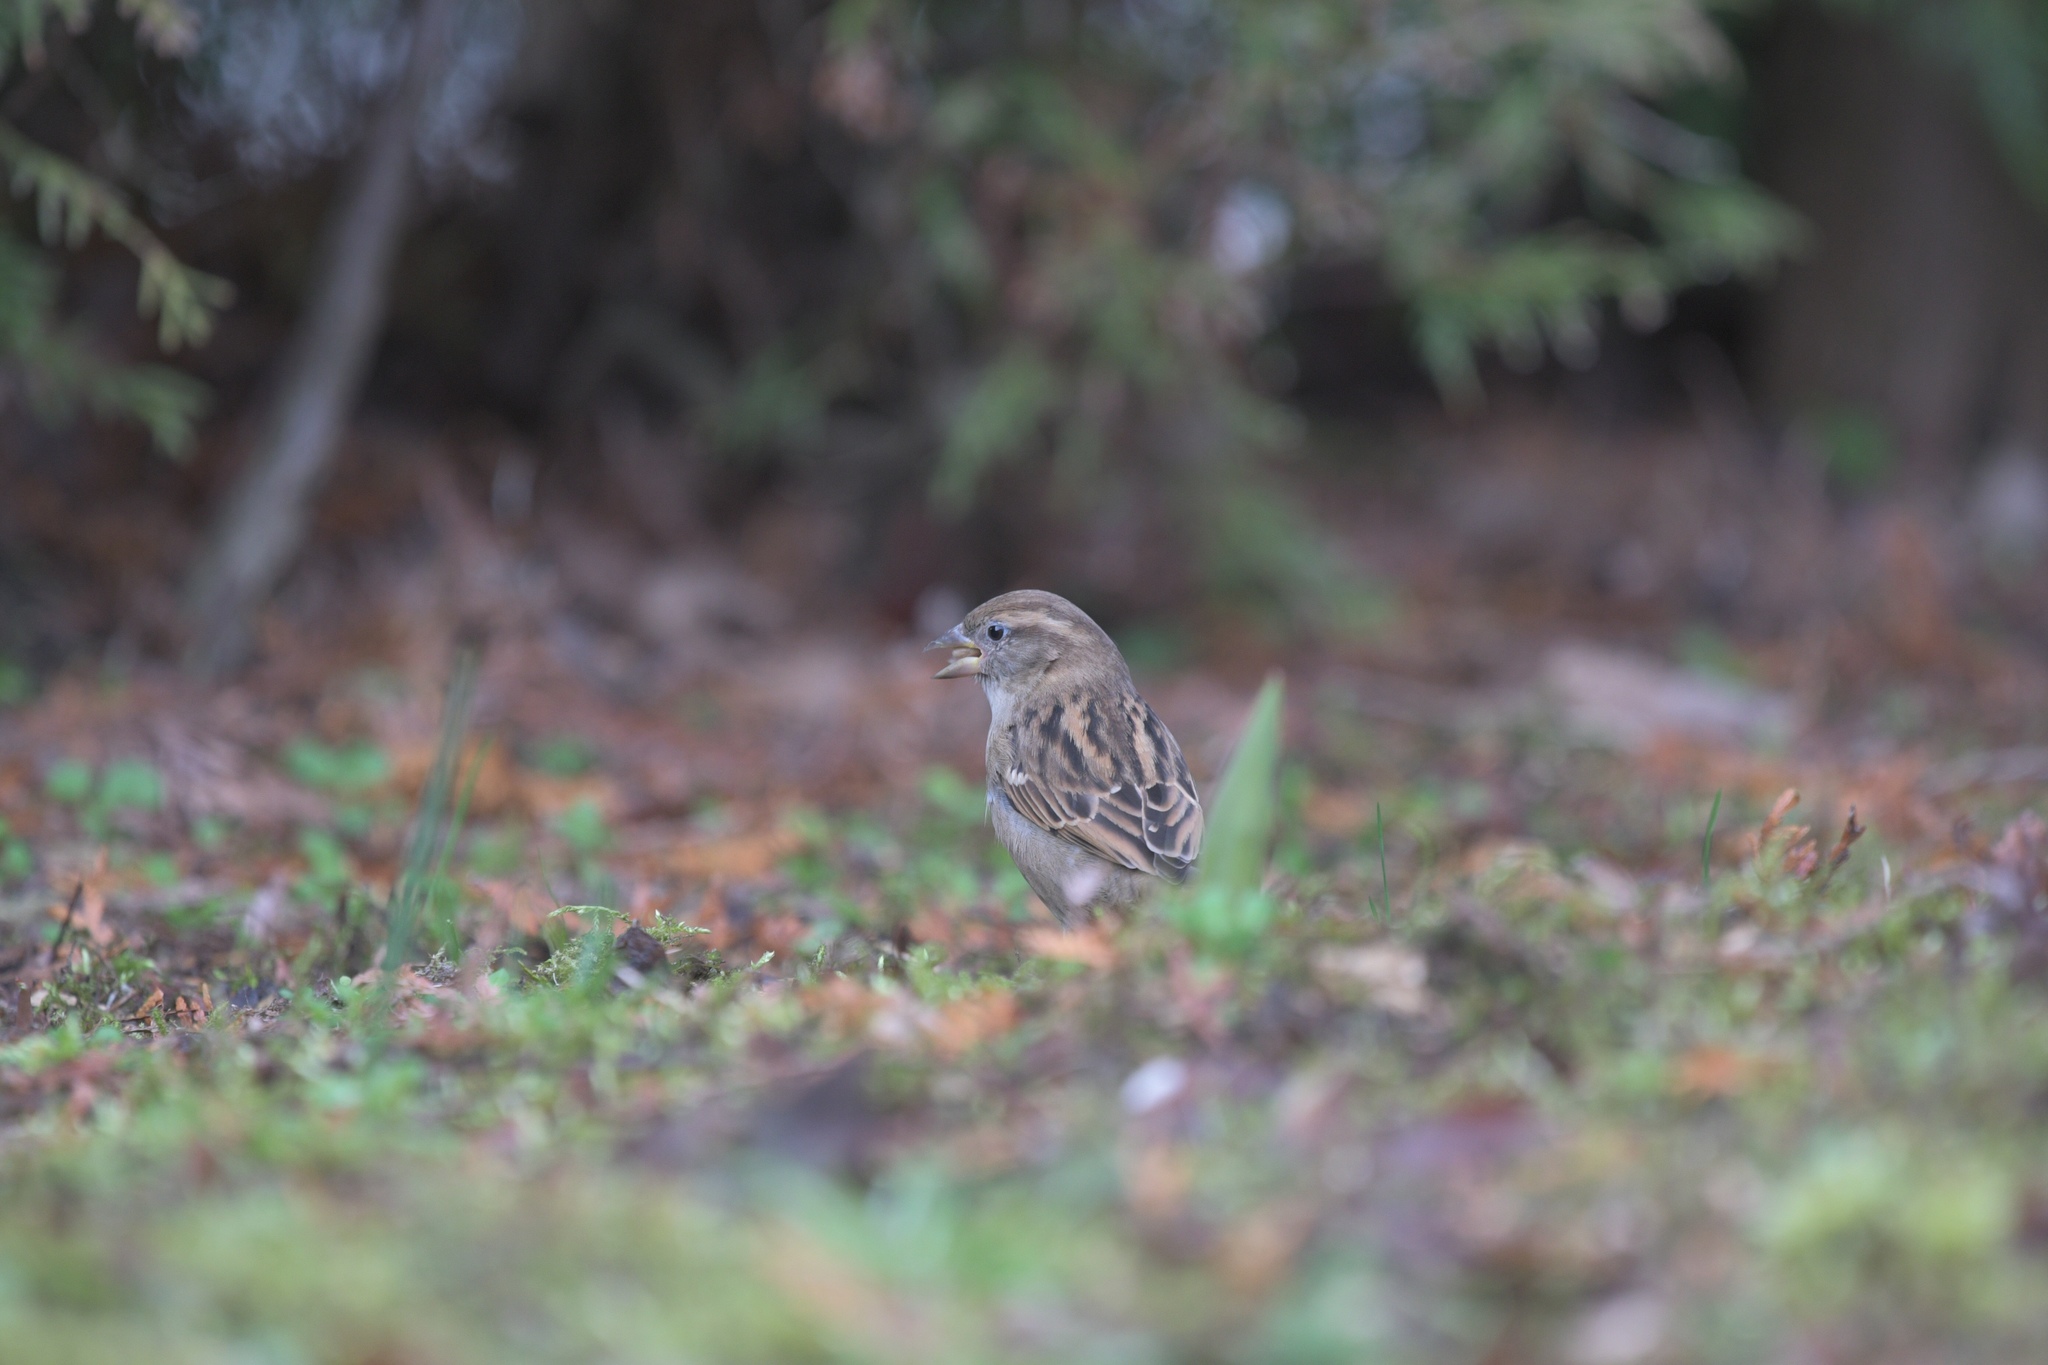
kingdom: Animalia
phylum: Chordata
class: Aves
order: Passeriformes
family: Passeridae
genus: Passer
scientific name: Passer domesticus
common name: House sparrow
